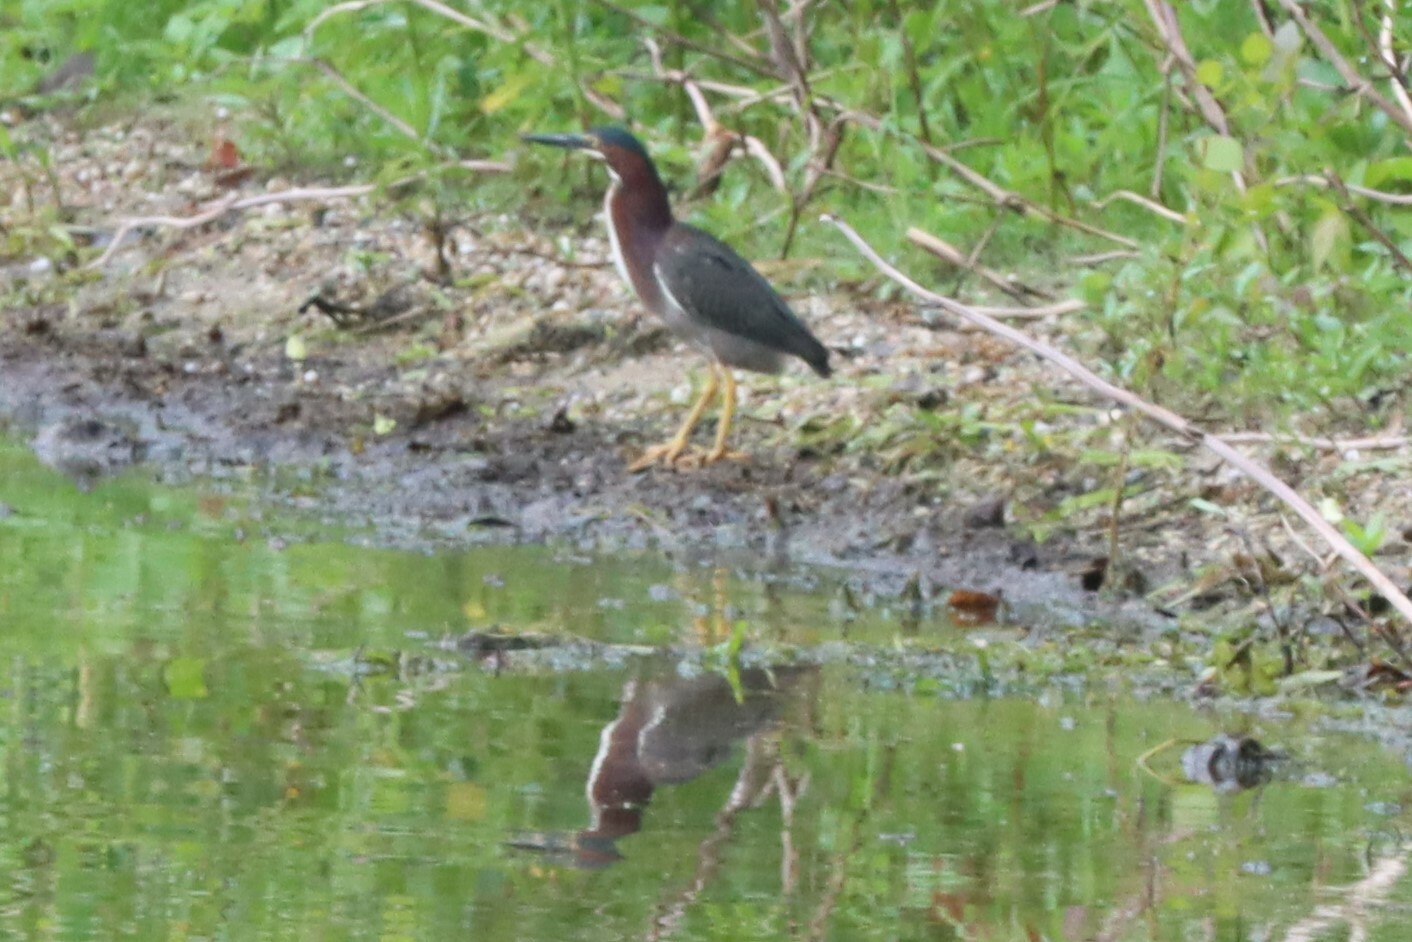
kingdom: Animalia
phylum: Chordata
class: Aves
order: Pelecaniformes
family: Ardeidae
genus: Butorides
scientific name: Butorides virescens
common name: Green heron
